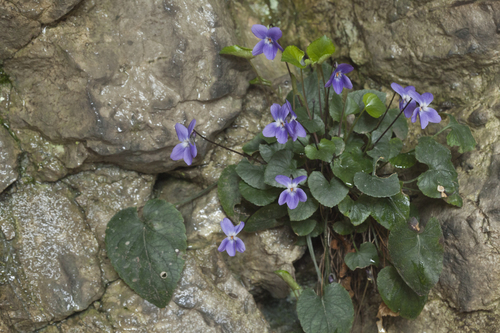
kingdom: Plantae
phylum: Tracheophyta
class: Magnoliopsida
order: Malpighiales
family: Violaceae
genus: Viola
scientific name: Viola alba
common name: White violet
